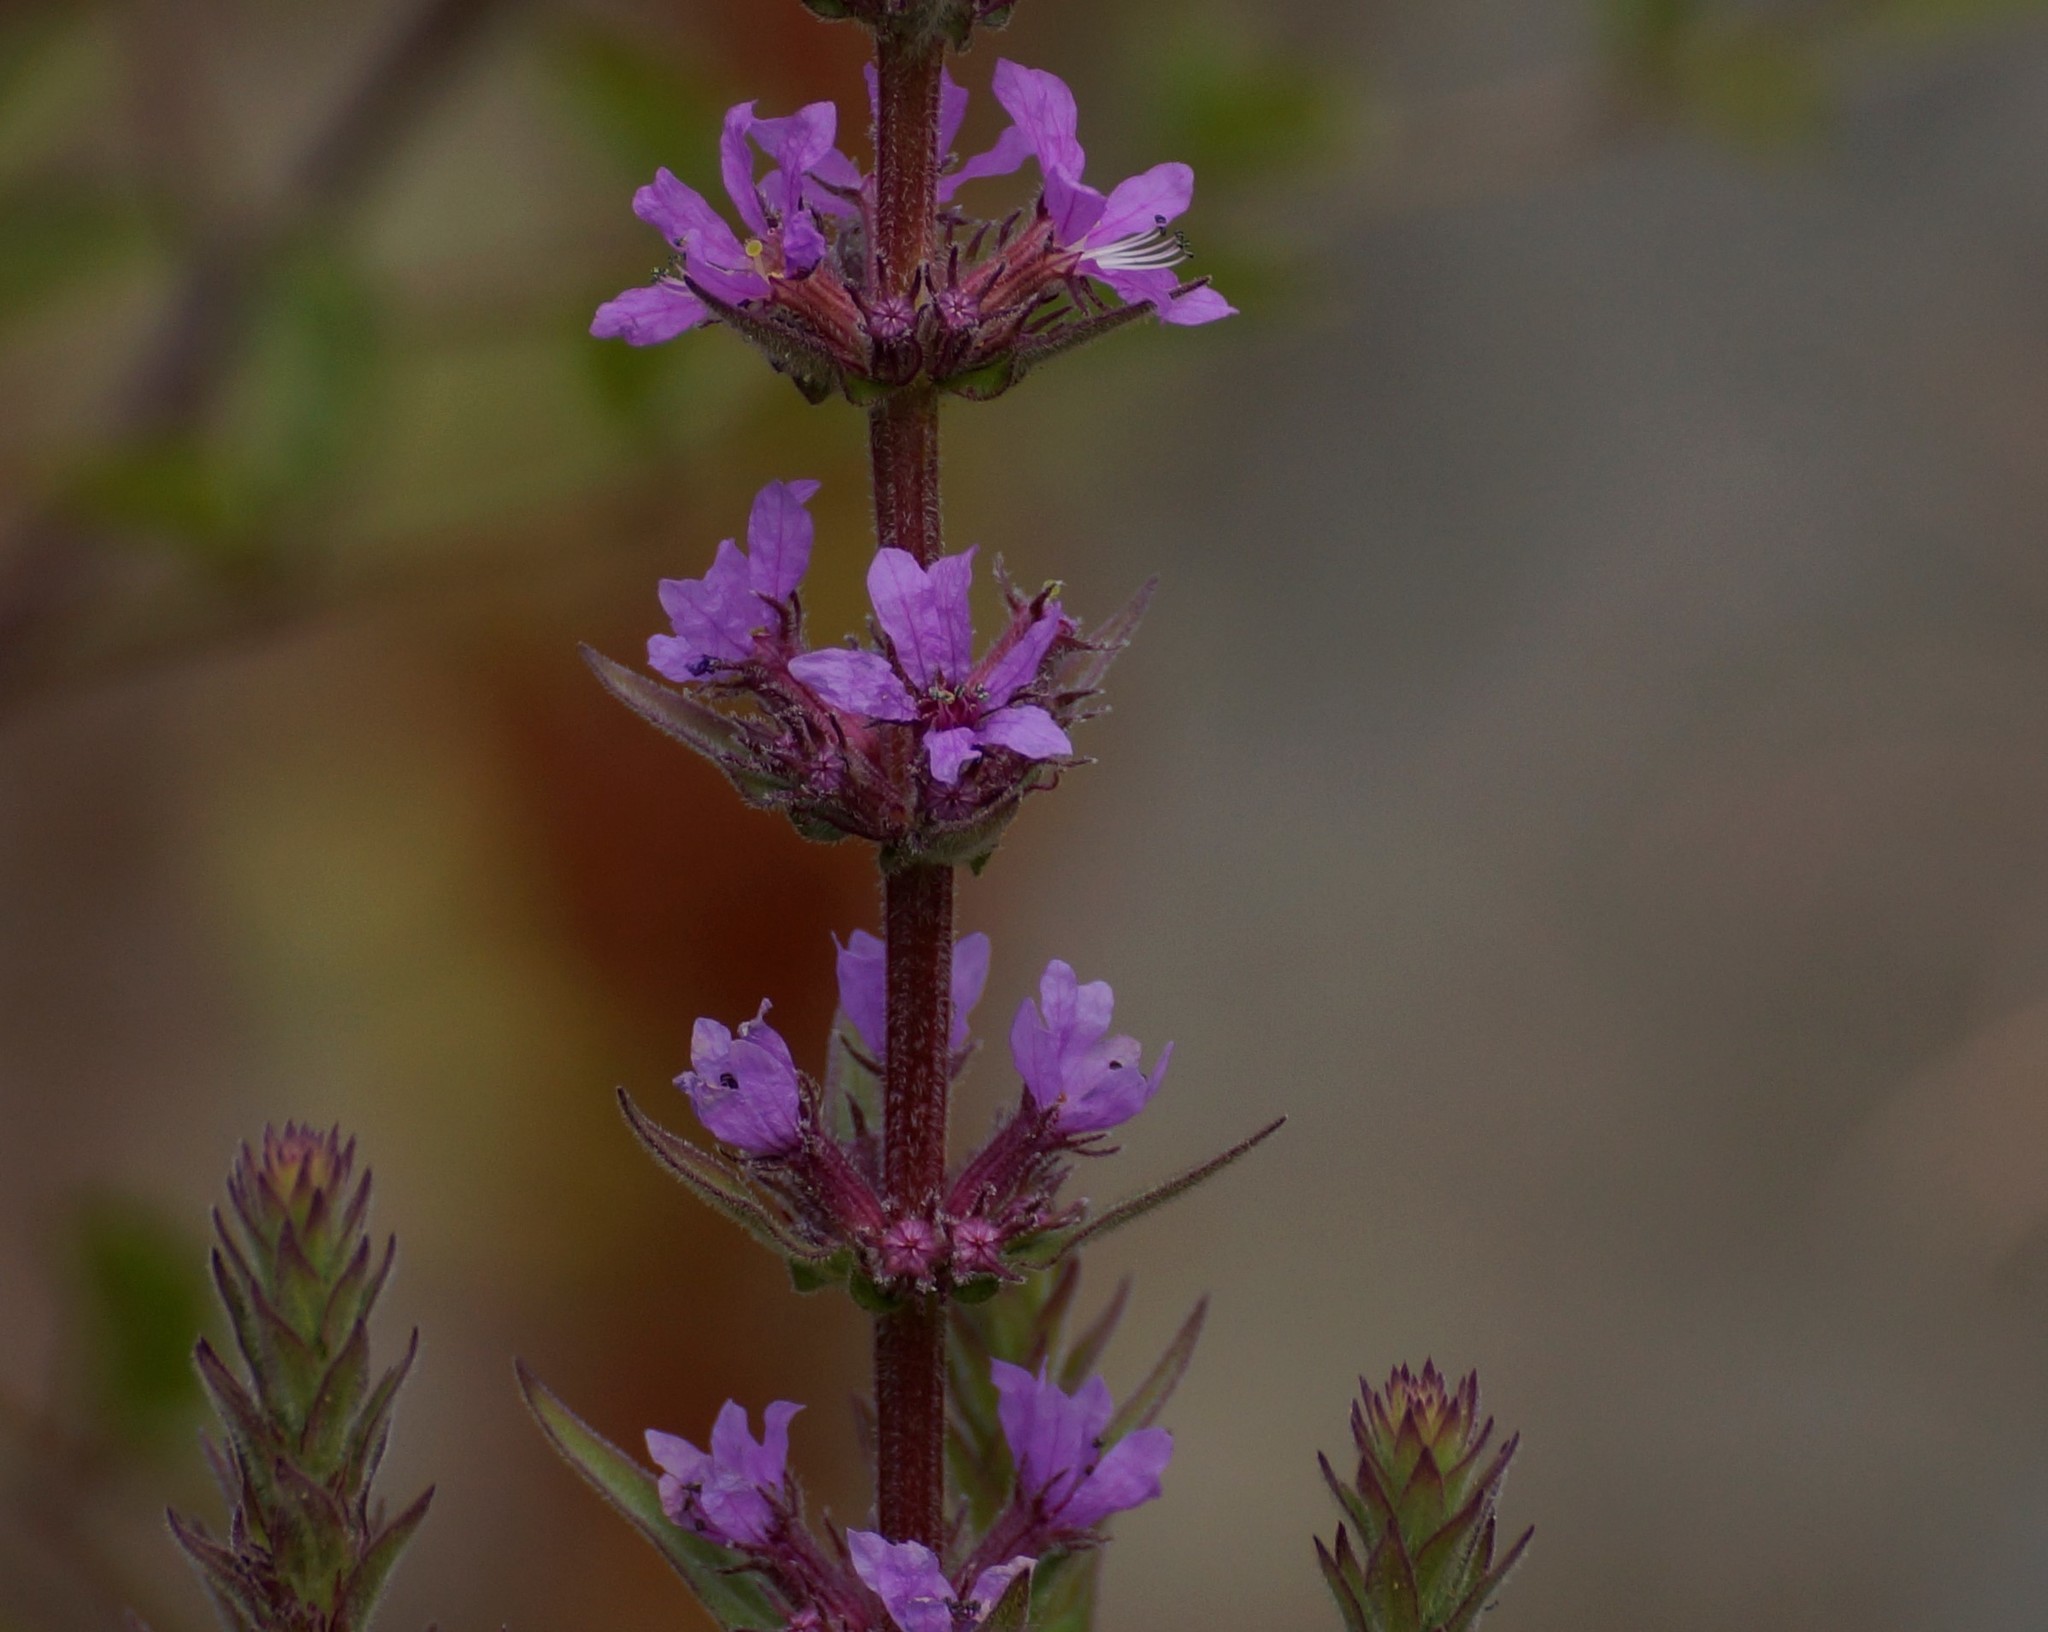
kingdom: Plantae
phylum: Tracheophyta
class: Magnoliopsida
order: Myrtales
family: Lythraceae
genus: Lythrum
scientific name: Lythrum salicaria
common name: Purple loosestrife
